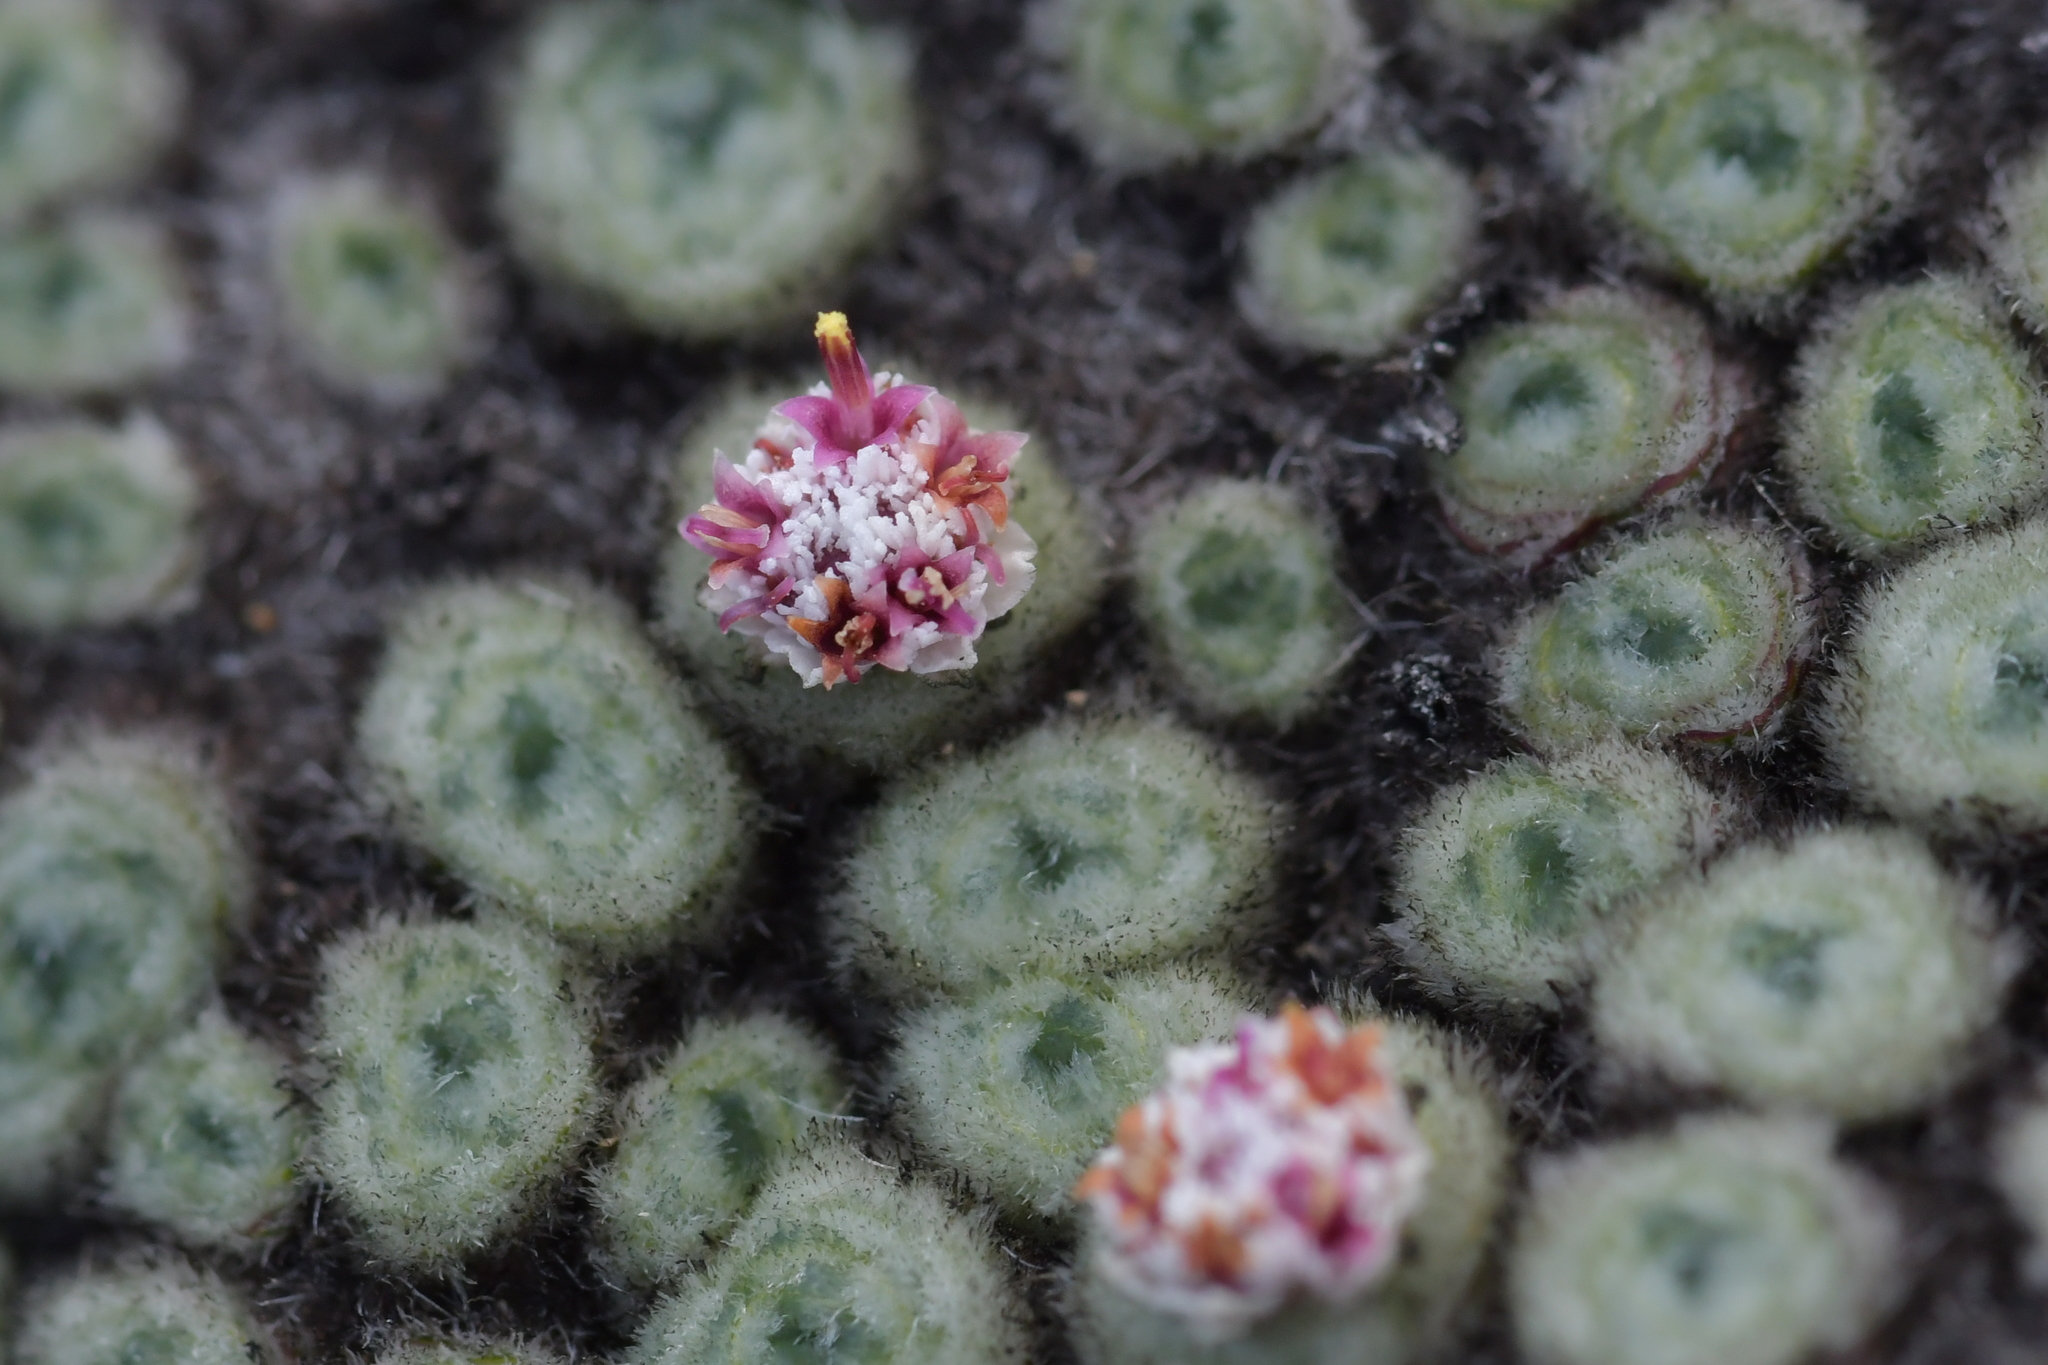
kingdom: Plantae
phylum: Tracheophyta
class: Magnoliopsida
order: Asterales
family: Asteraceae
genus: Raoulia
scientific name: Raoulia rubra
